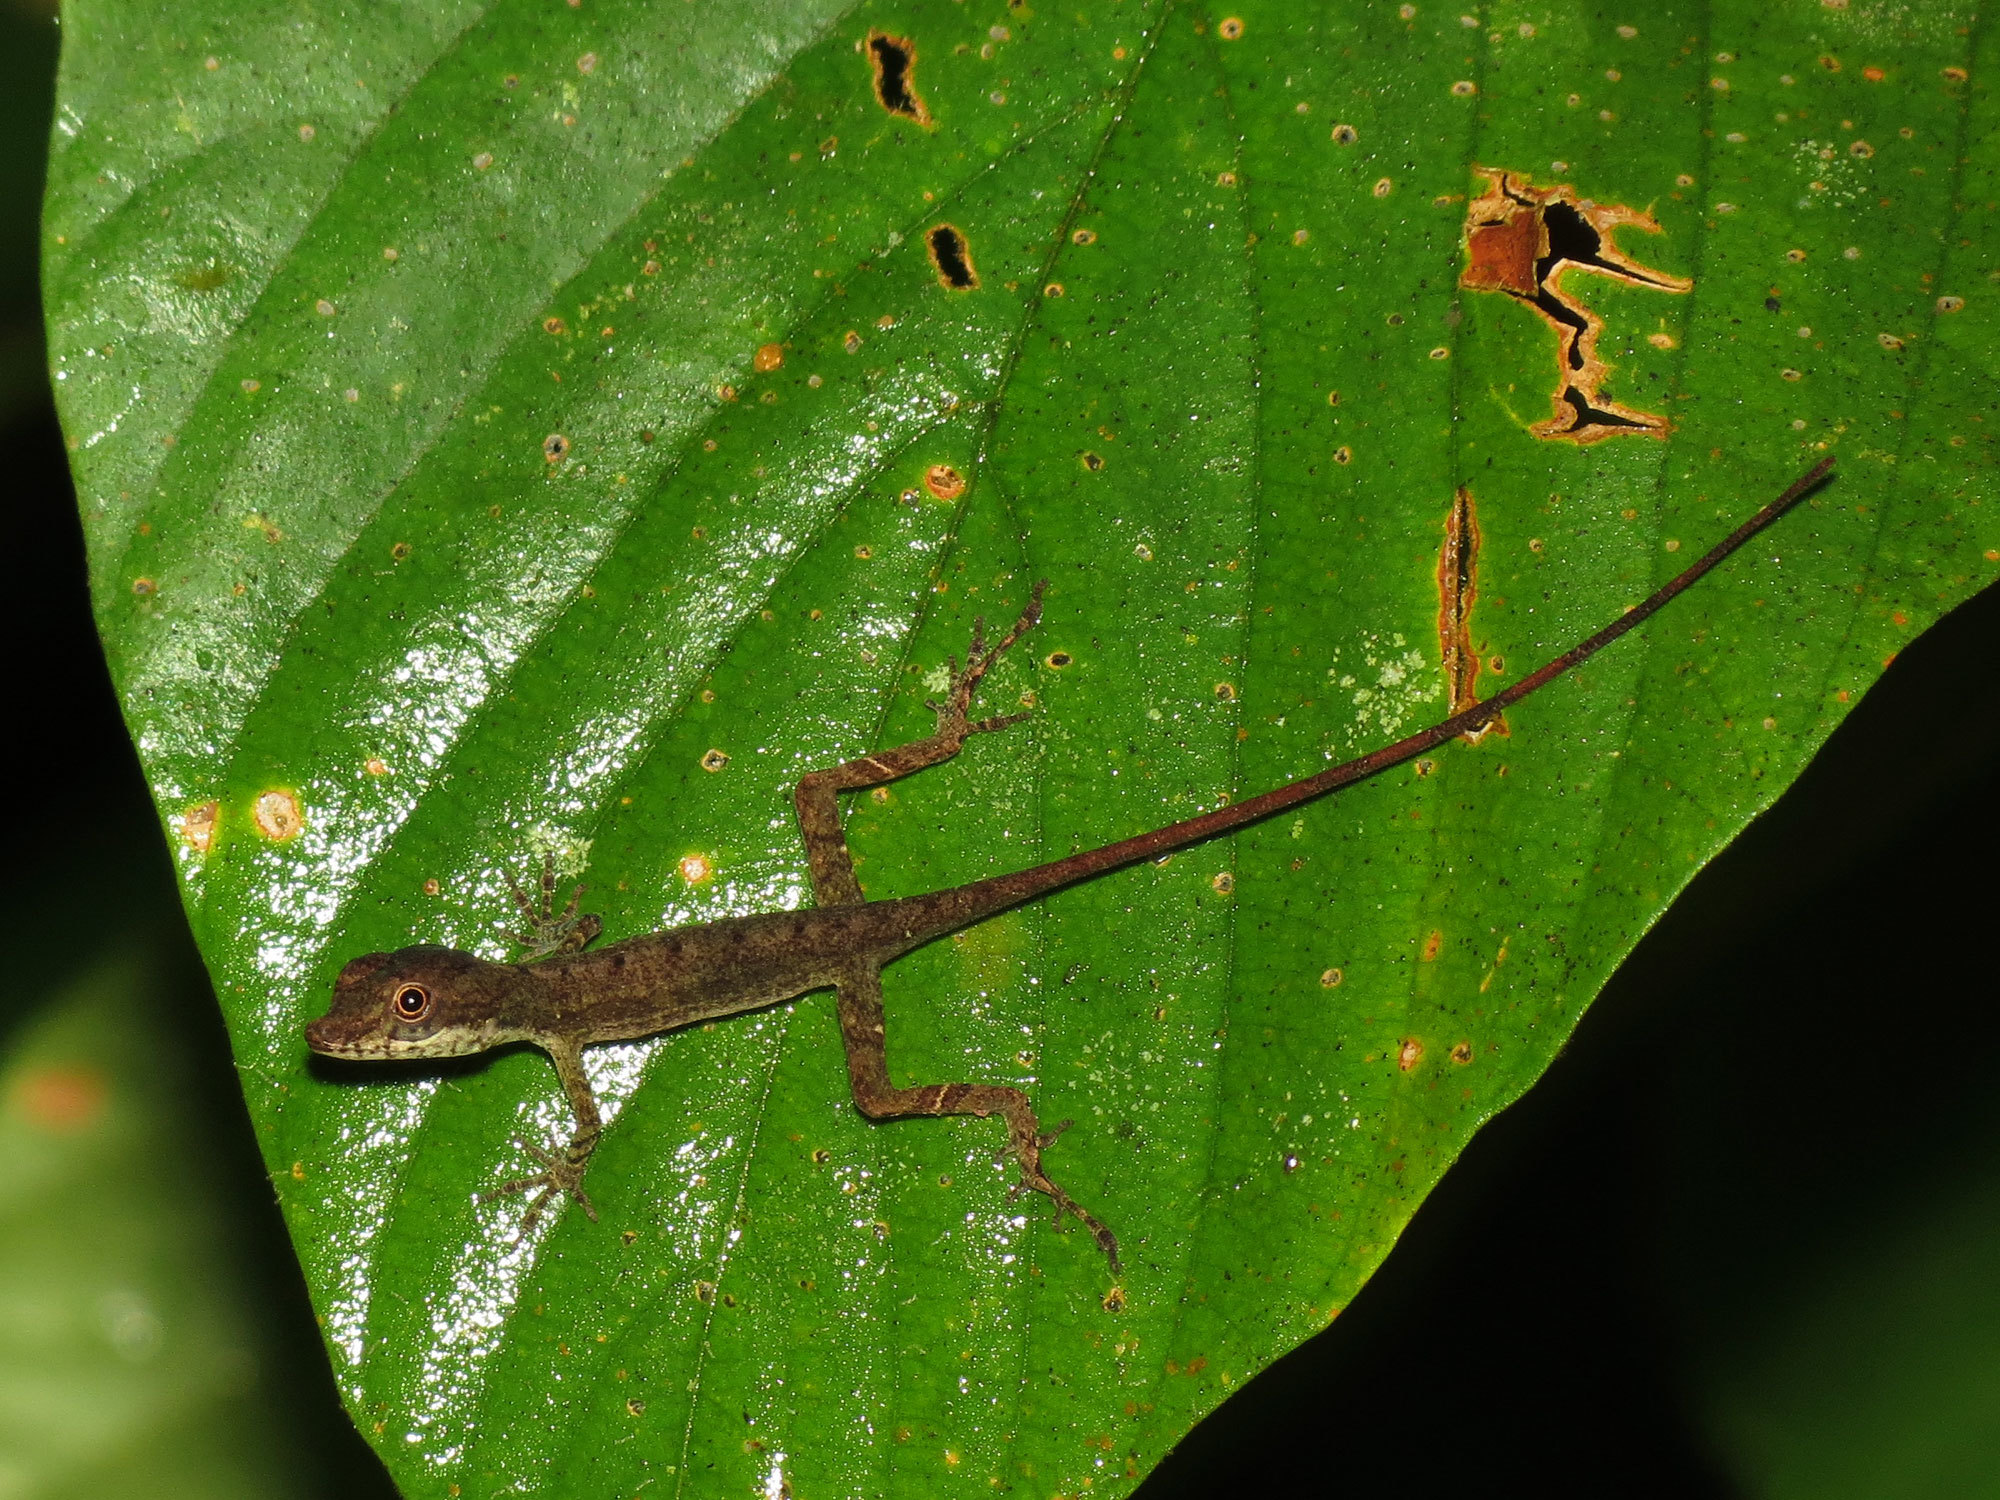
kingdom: Animalia
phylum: Chordata
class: Squamata
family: Dactyloidae
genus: Anolis
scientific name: Anolis apletophallus
